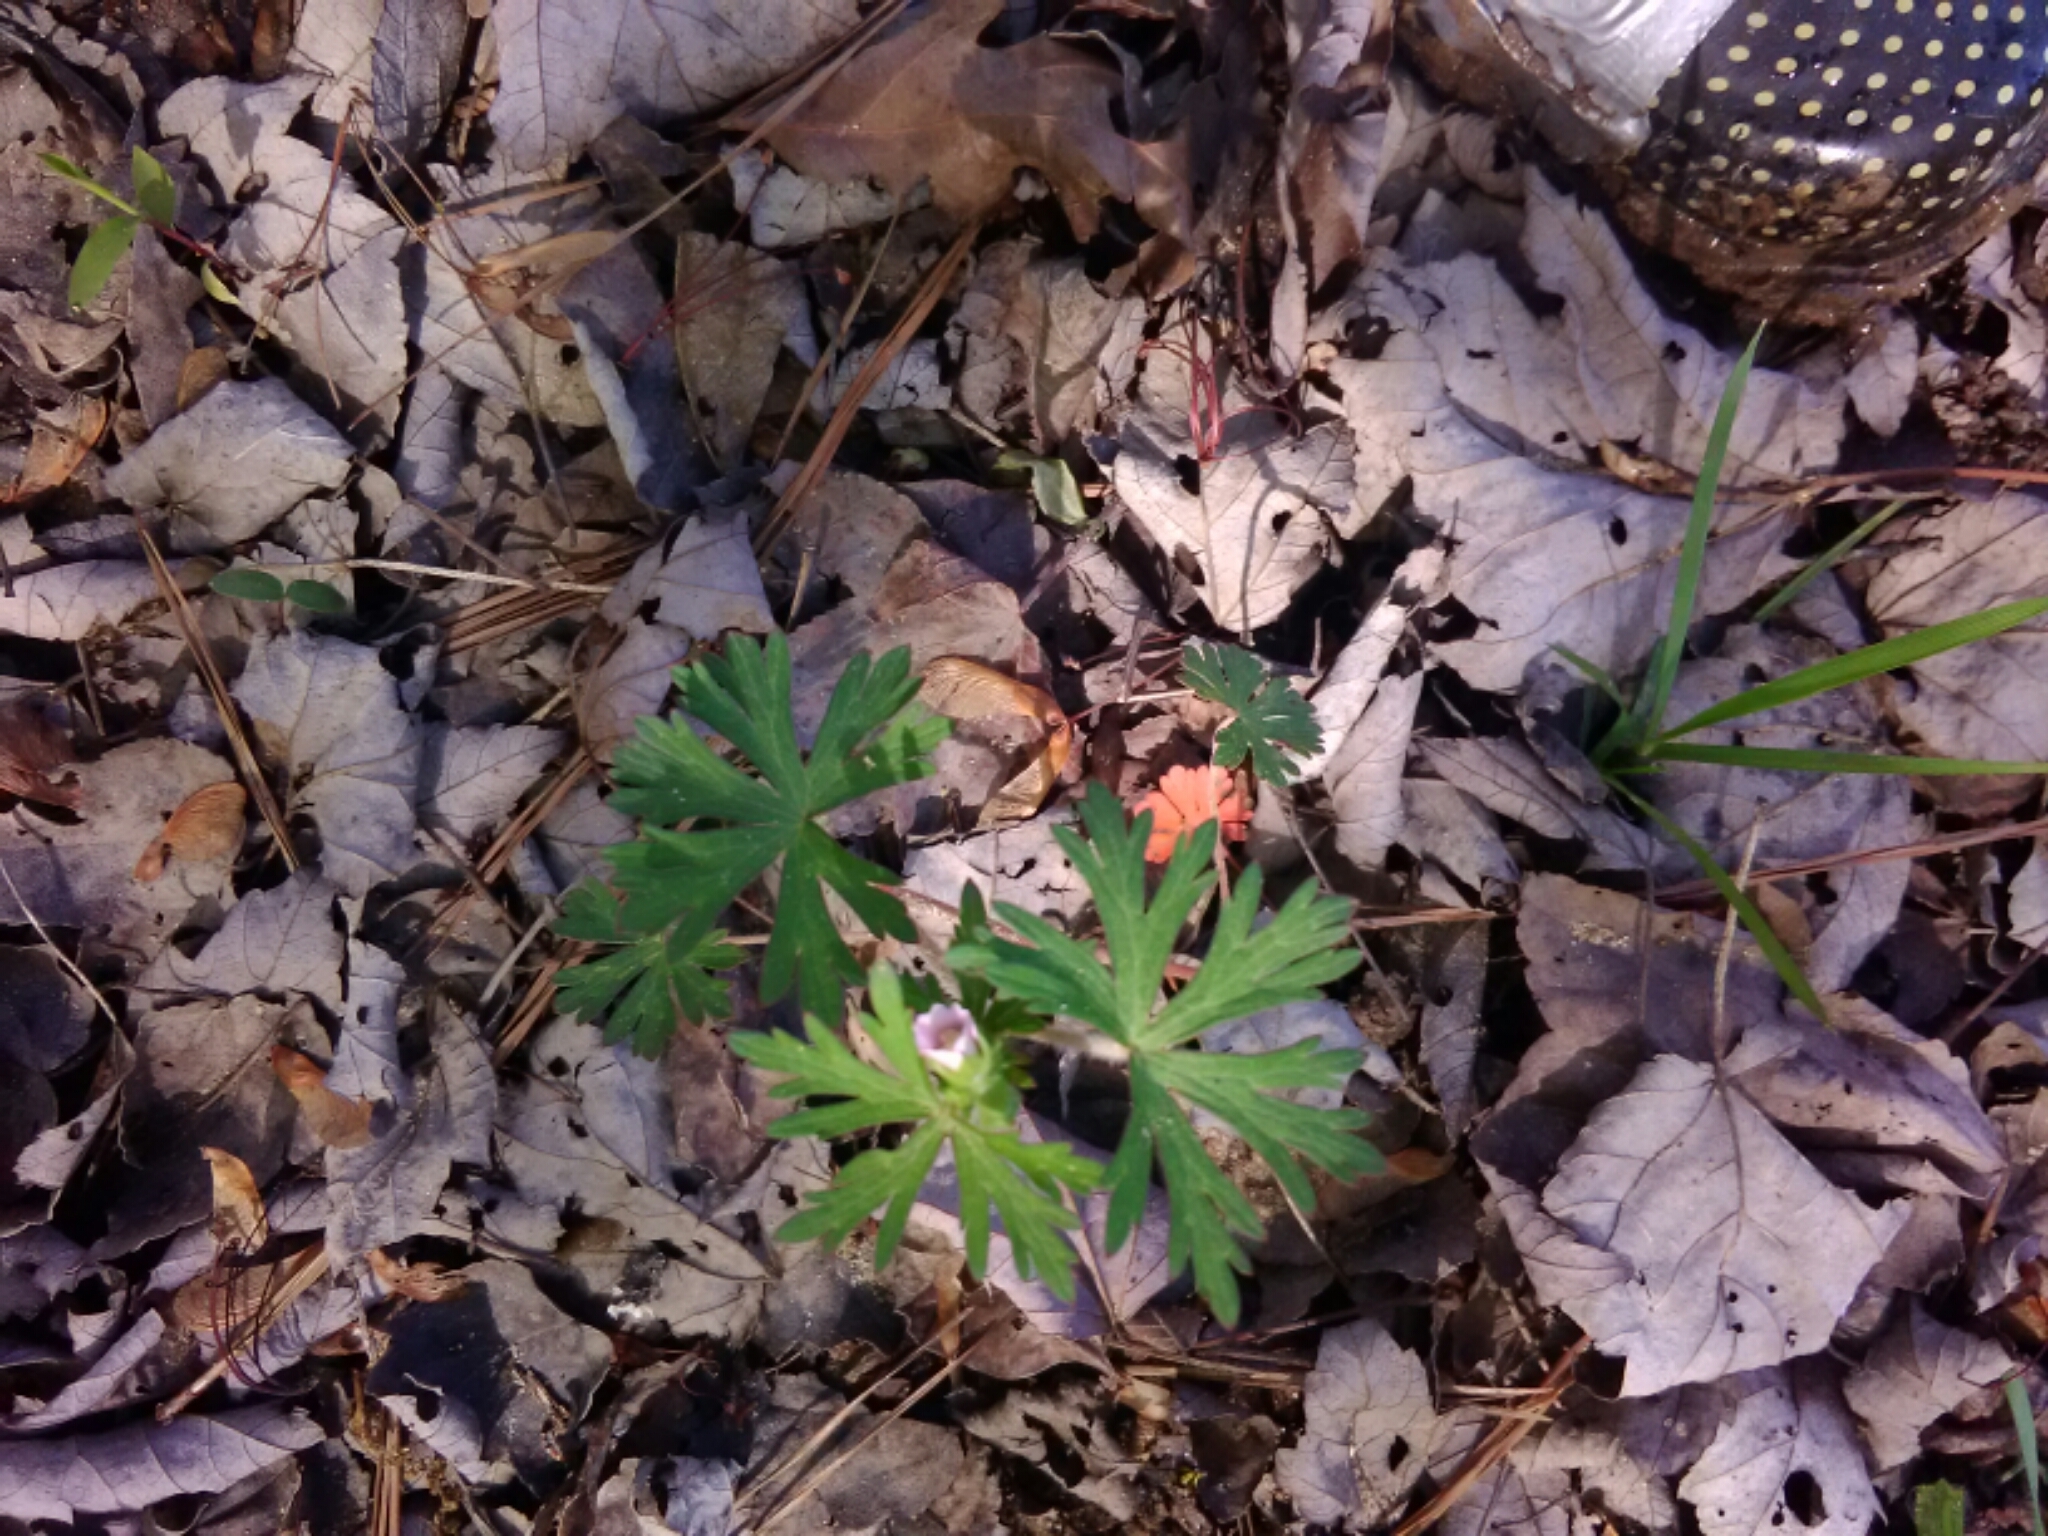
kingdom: Plantae
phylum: Tracheophyta
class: Magnoliopsida
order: Geraniales
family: Geraniaceae
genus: Geranium
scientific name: Geranium carolinianum
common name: Carolina crane's-bill
